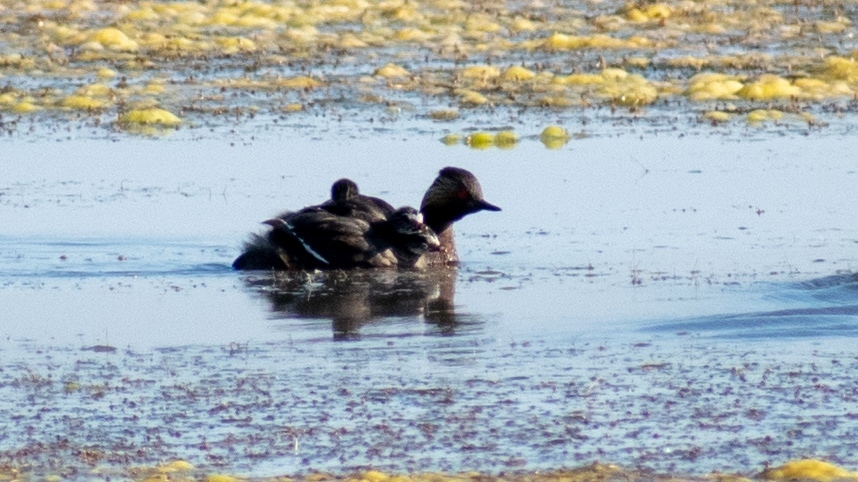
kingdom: Animalia
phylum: Chordata
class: Aves
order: Podicipediformes
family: Podicipedidae
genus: Podiceps
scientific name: Podiceps nigricollis
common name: Black-necked grebe
